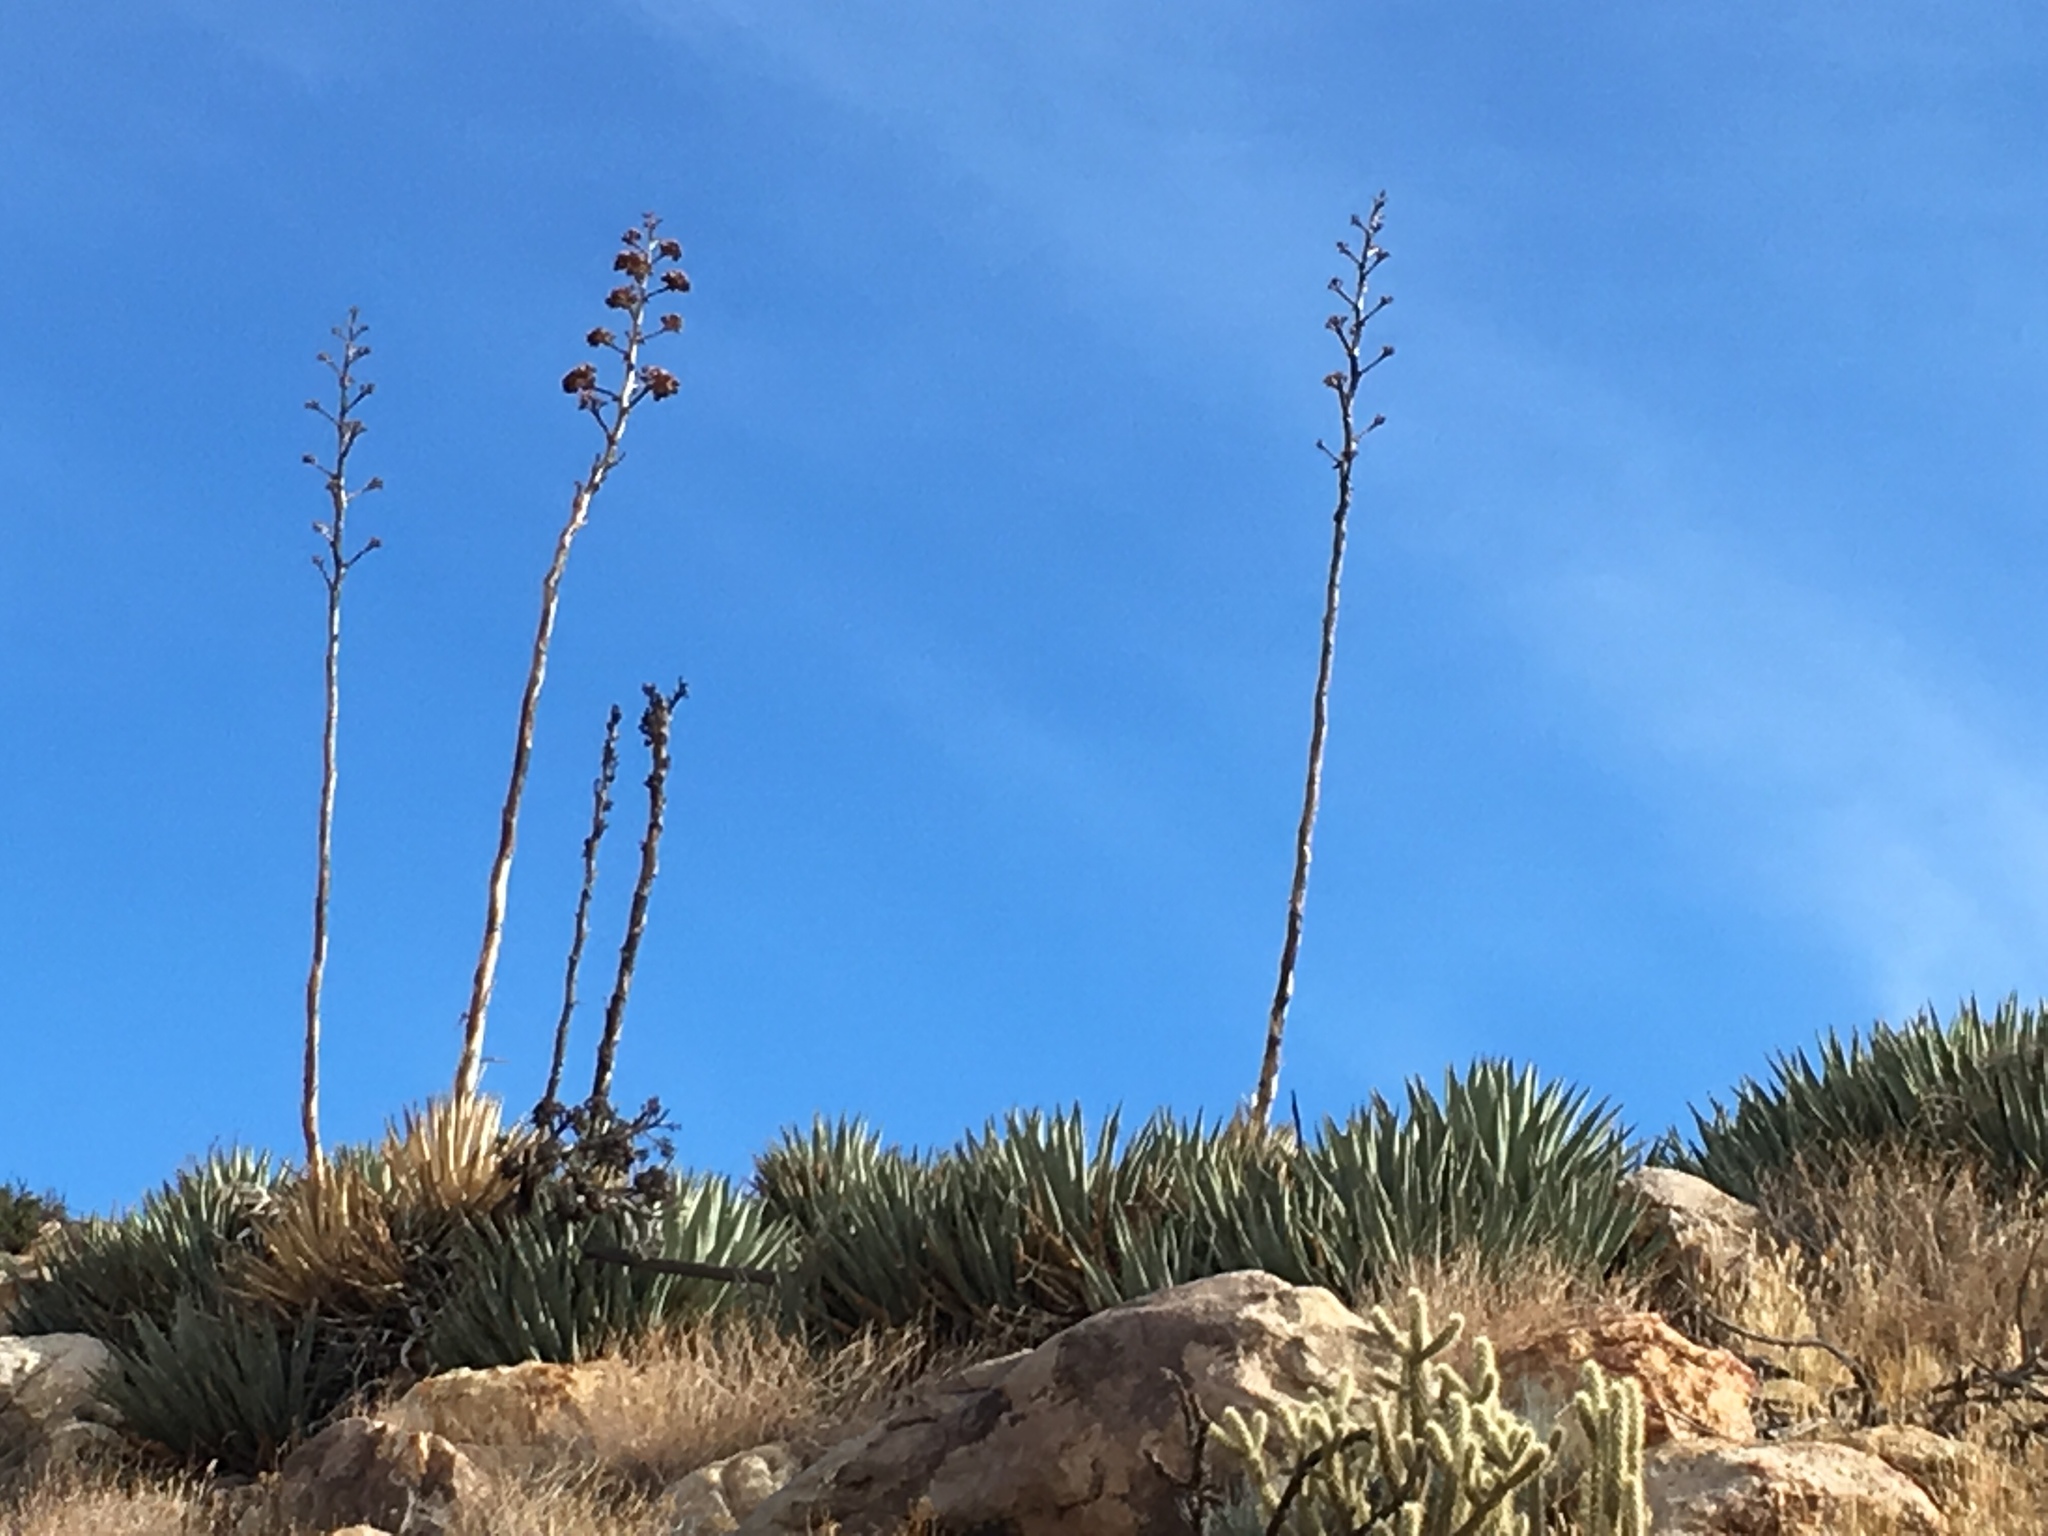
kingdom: Plantae
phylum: Tracheophyta
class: Liliopsida
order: Asparagales
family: Asparagaceae
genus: Agave
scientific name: Agave deserti
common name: Desert agave
